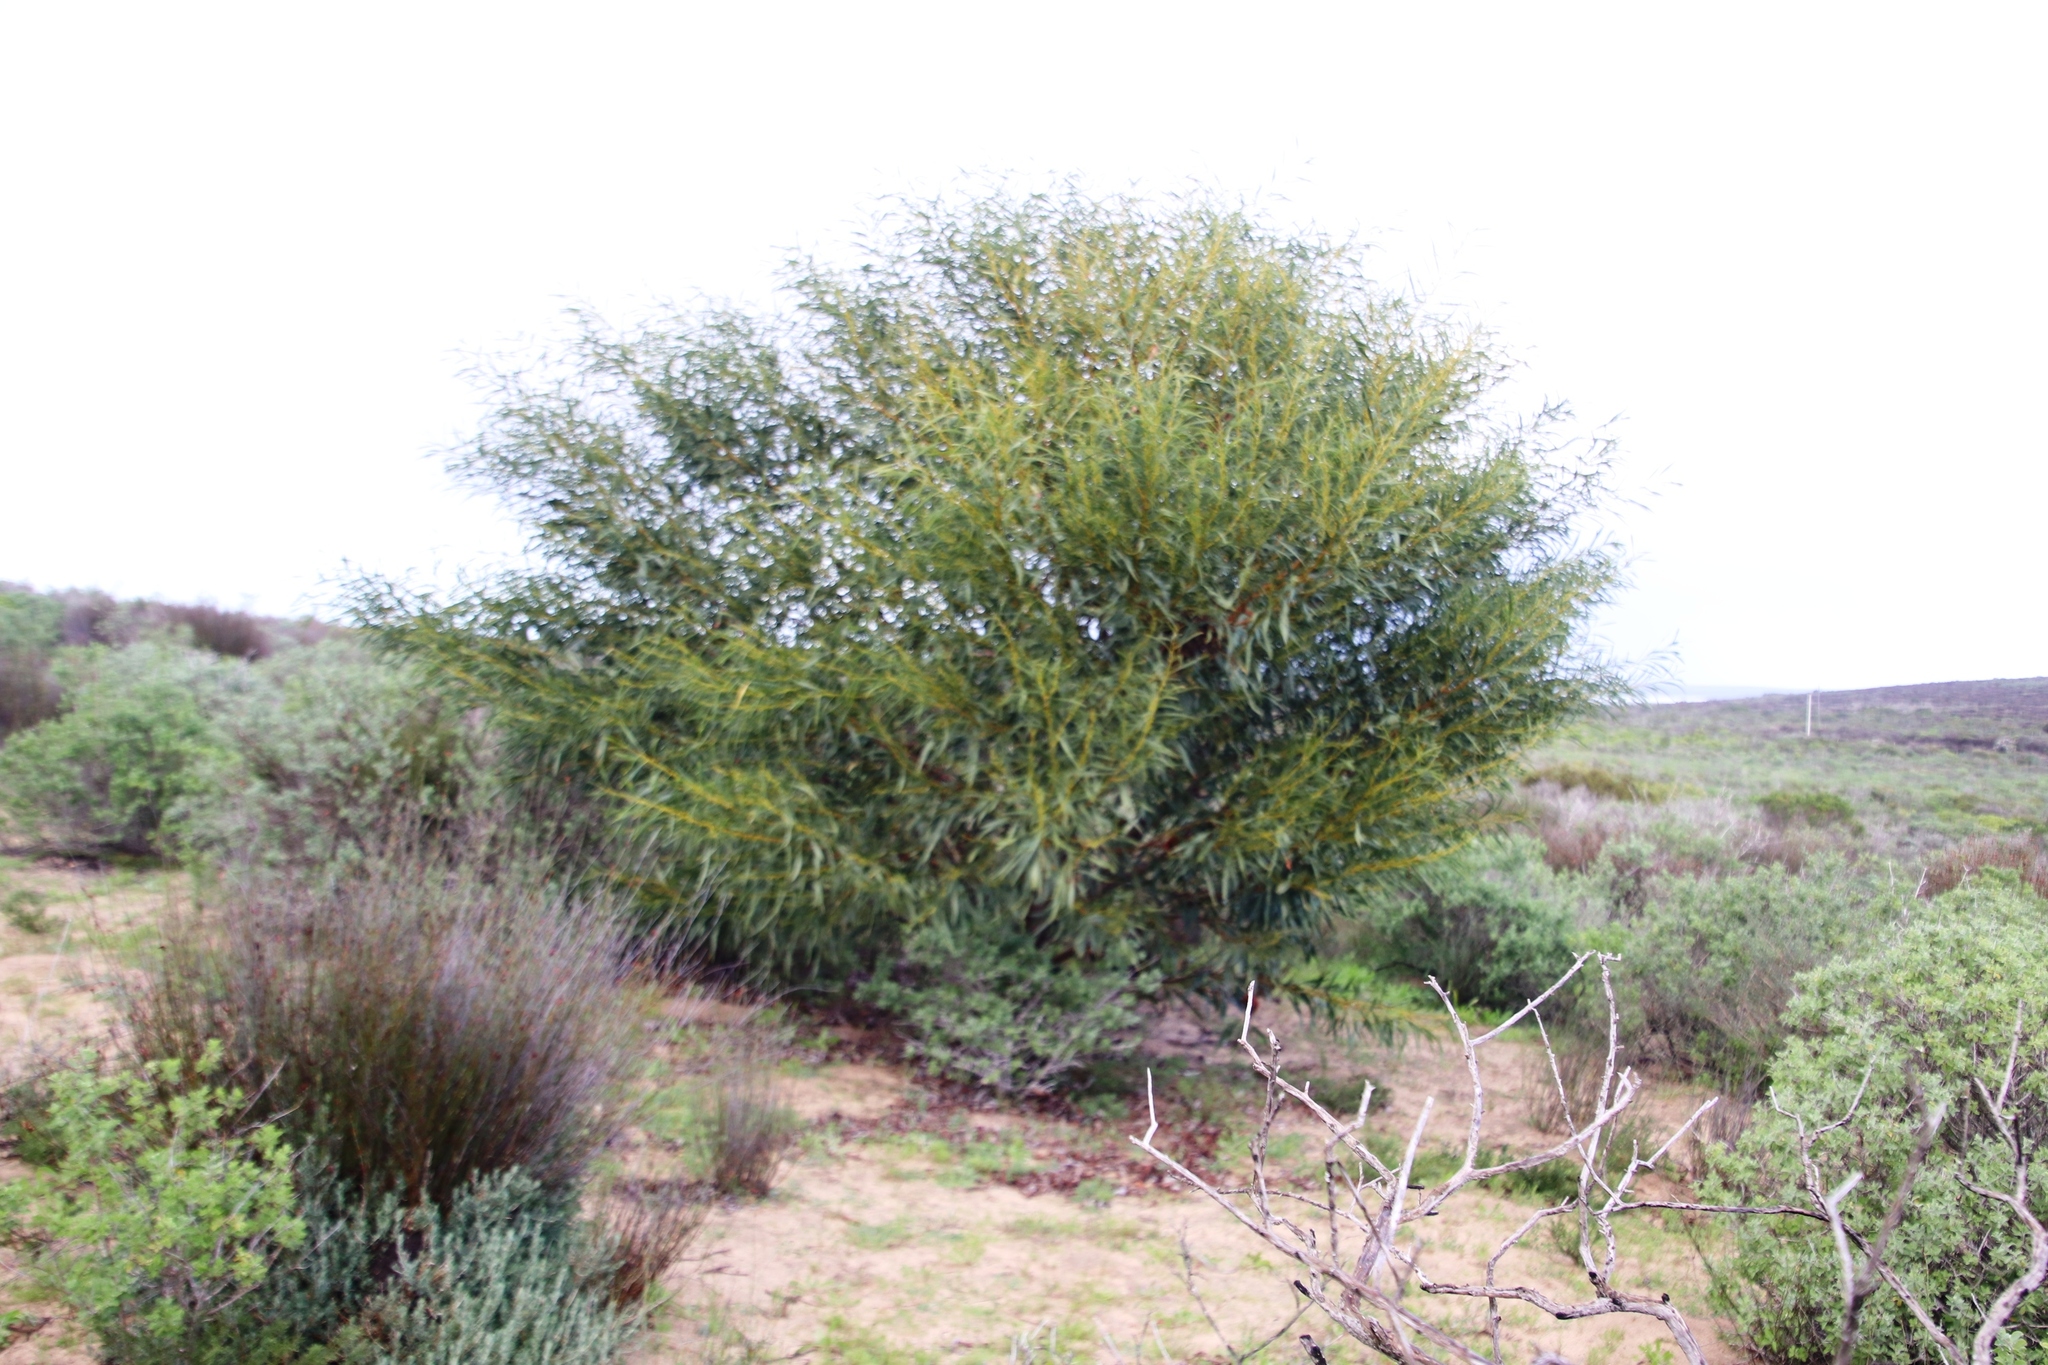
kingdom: Plantae
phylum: Tracheophyta
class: Magnoliopsida
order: Fabales
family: Fabaceae
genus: Acacia
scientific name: Acacia saligna
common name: Orange wattle
